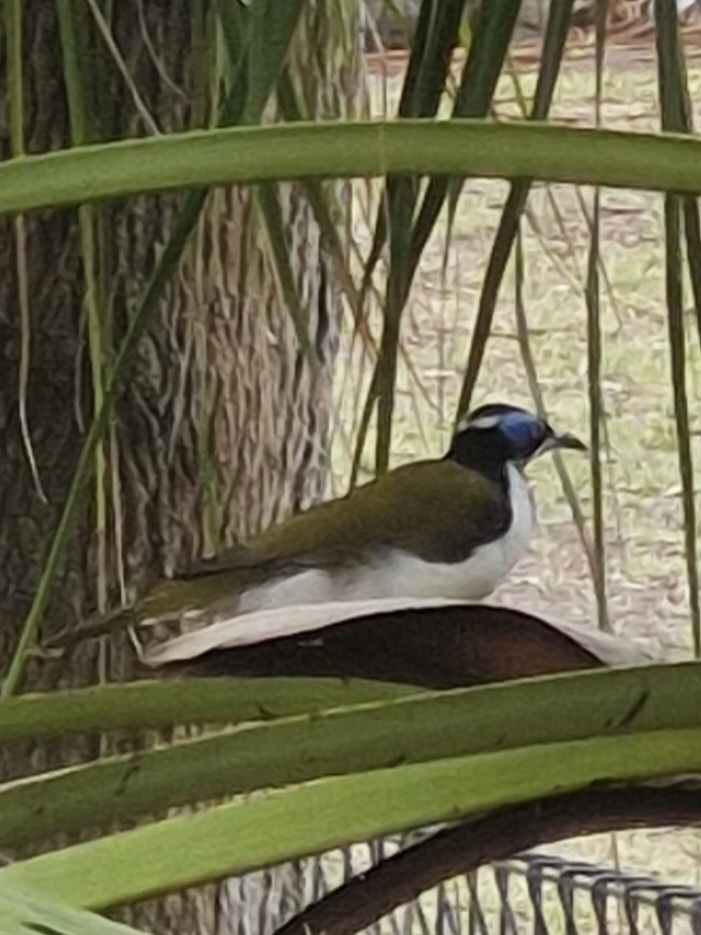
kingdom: Animalia
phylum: Chordata
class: Aves
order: Passeriformes
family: Meliphagidae
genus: Entomyzon
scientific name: Entomyzon cyanotis
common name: Blue-faced honeyeater
